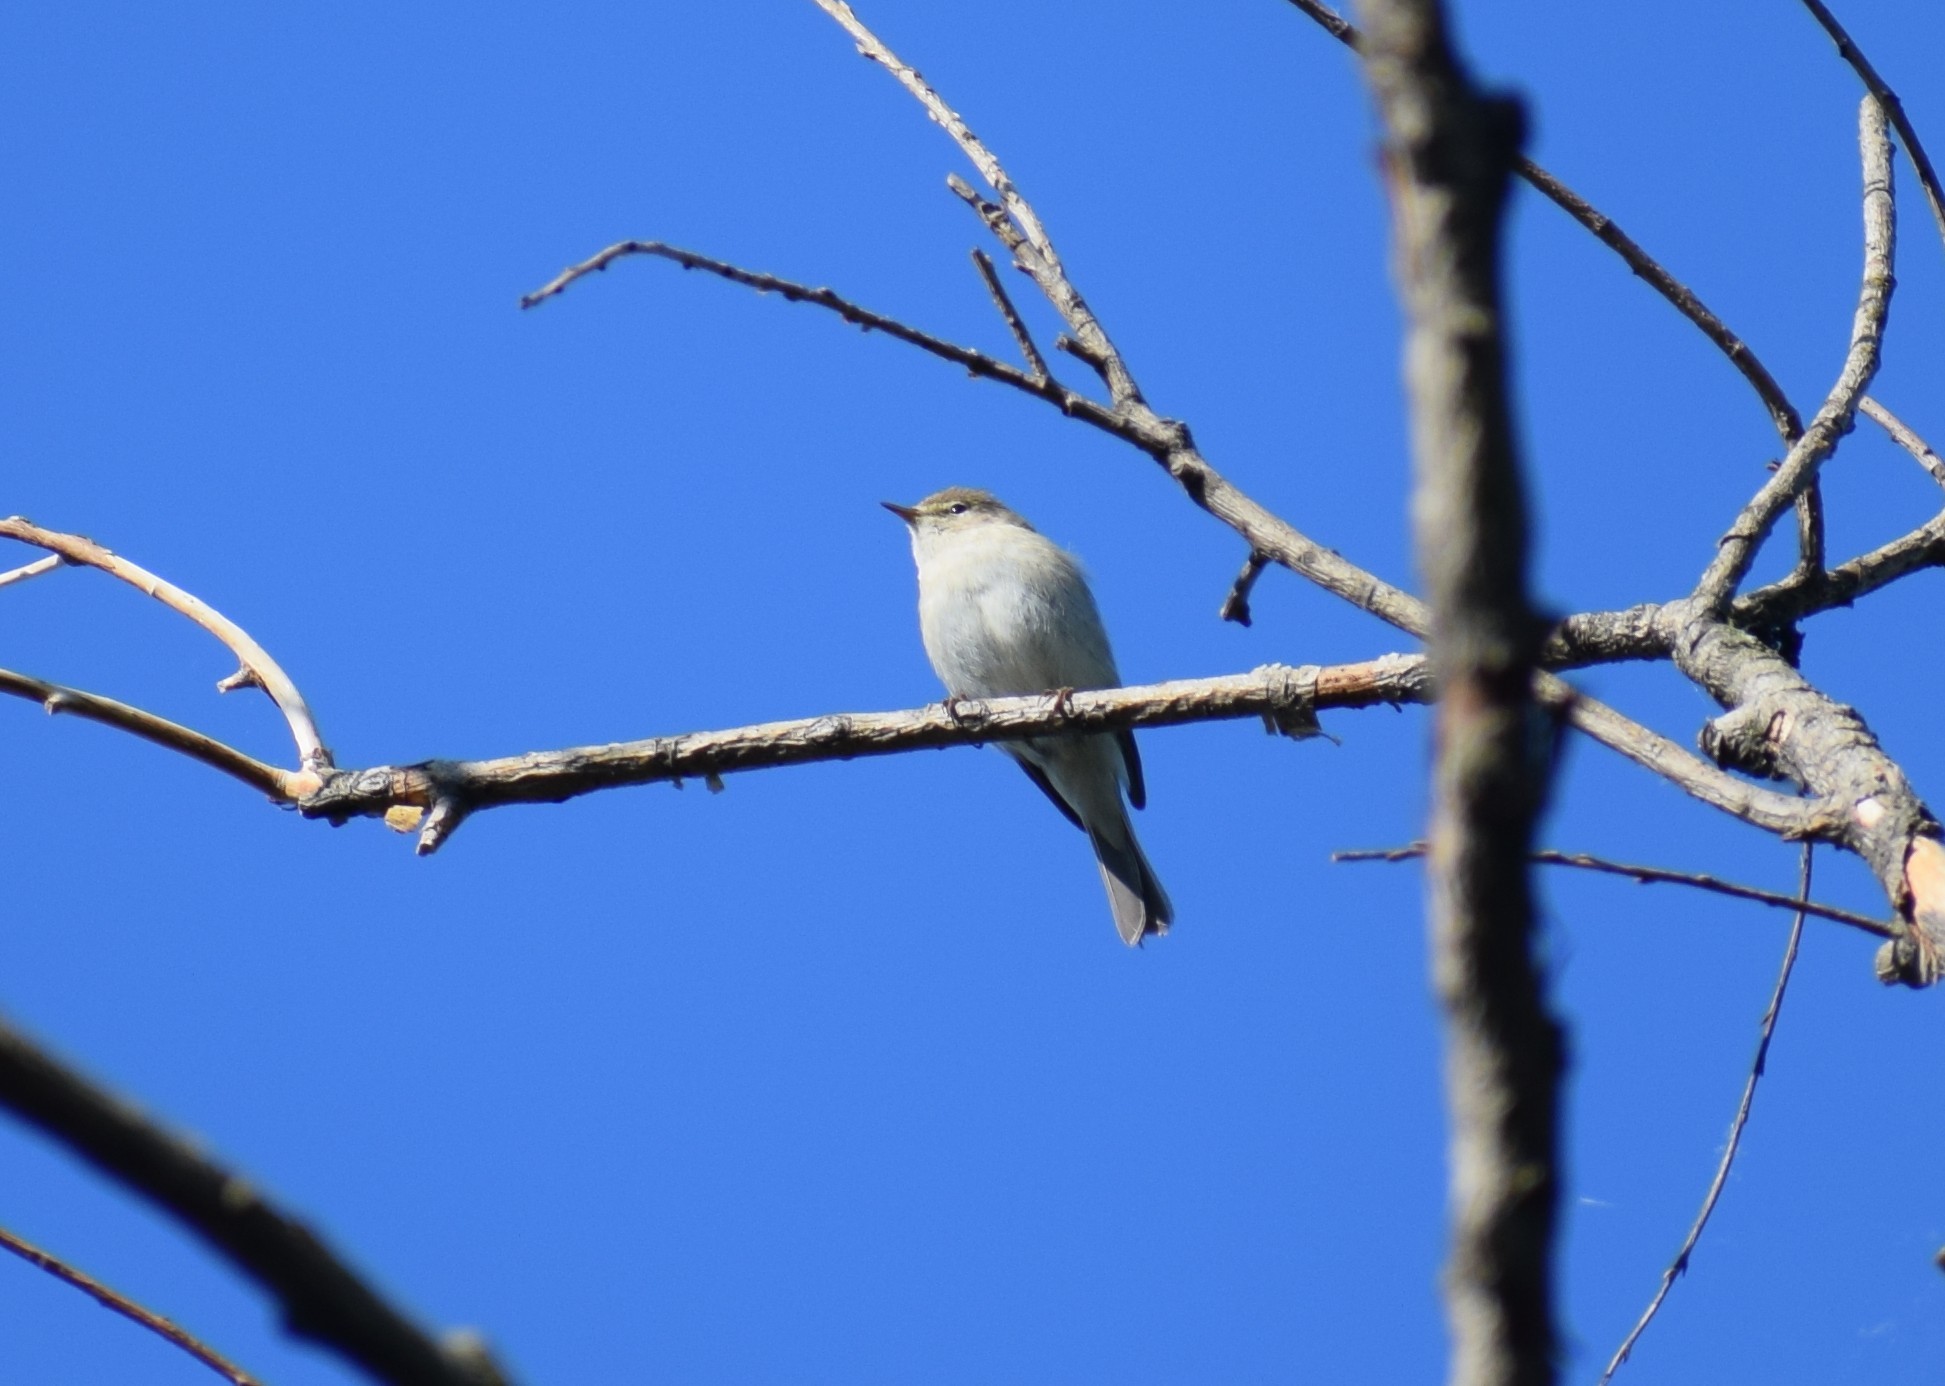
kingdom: Animalia
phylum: Chordata
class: Aves
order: Passeriformes
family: Phylloscopidae
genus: Phylloscopus
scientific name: Phylloscopus trochilus
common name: Willow warbler
